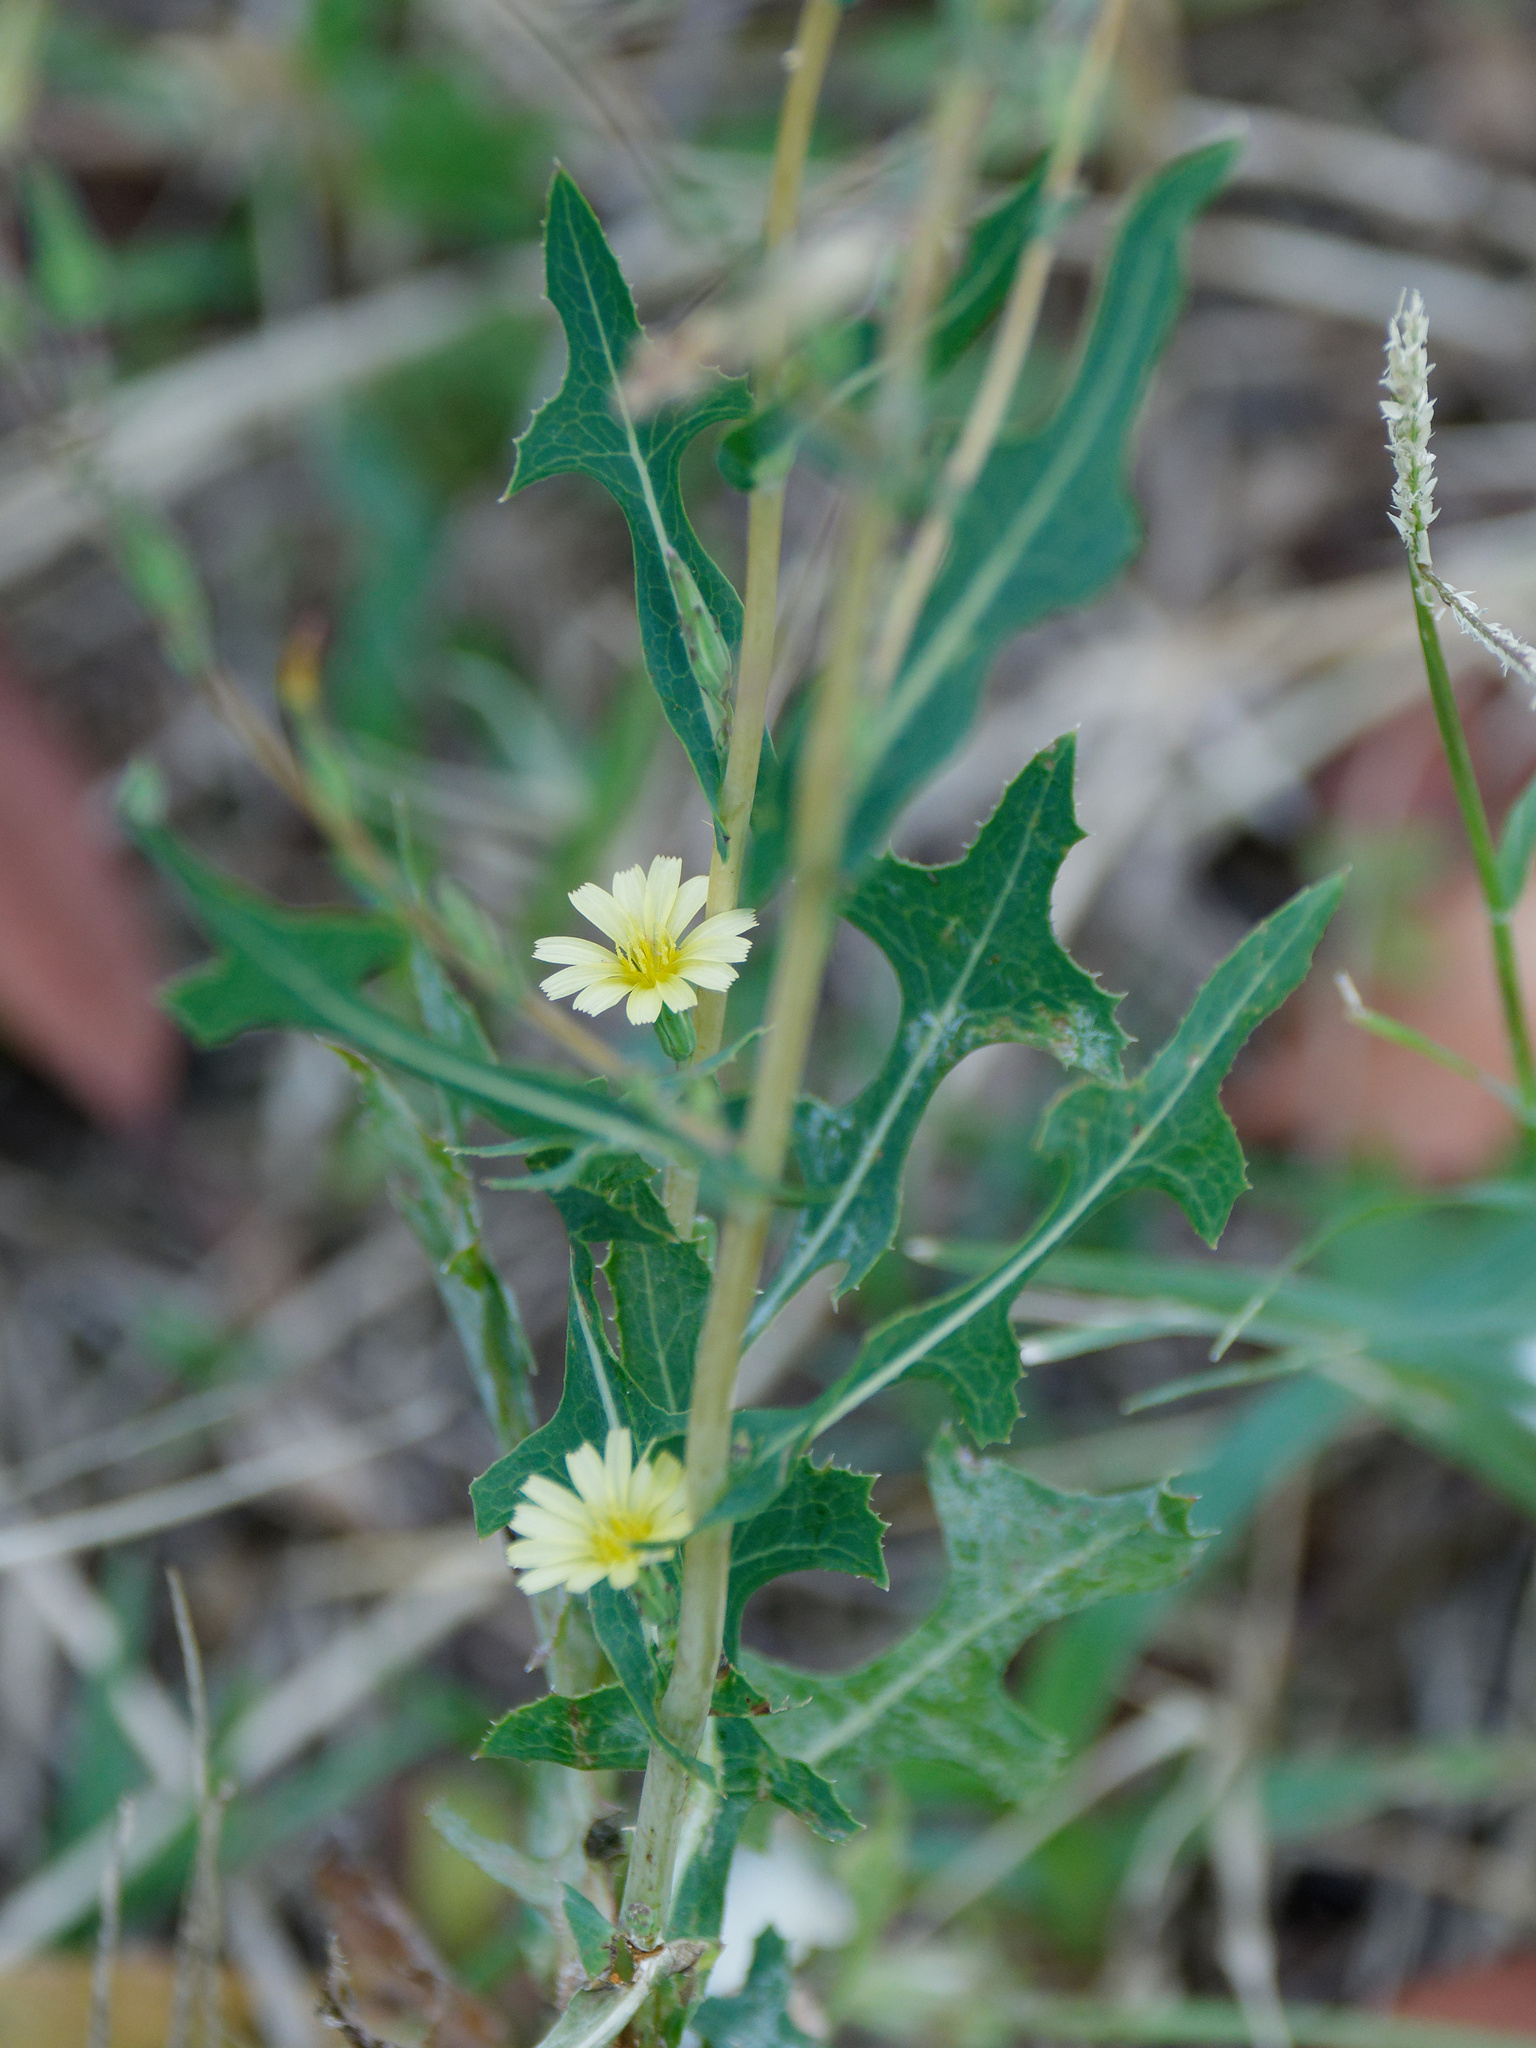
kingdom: Plantae
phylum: Tracheophyta
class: Magnoliopsida
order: Asterales
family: Asteraceae
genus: Lactuca
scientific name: Lactuca serriola
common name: Prickly lettuce
